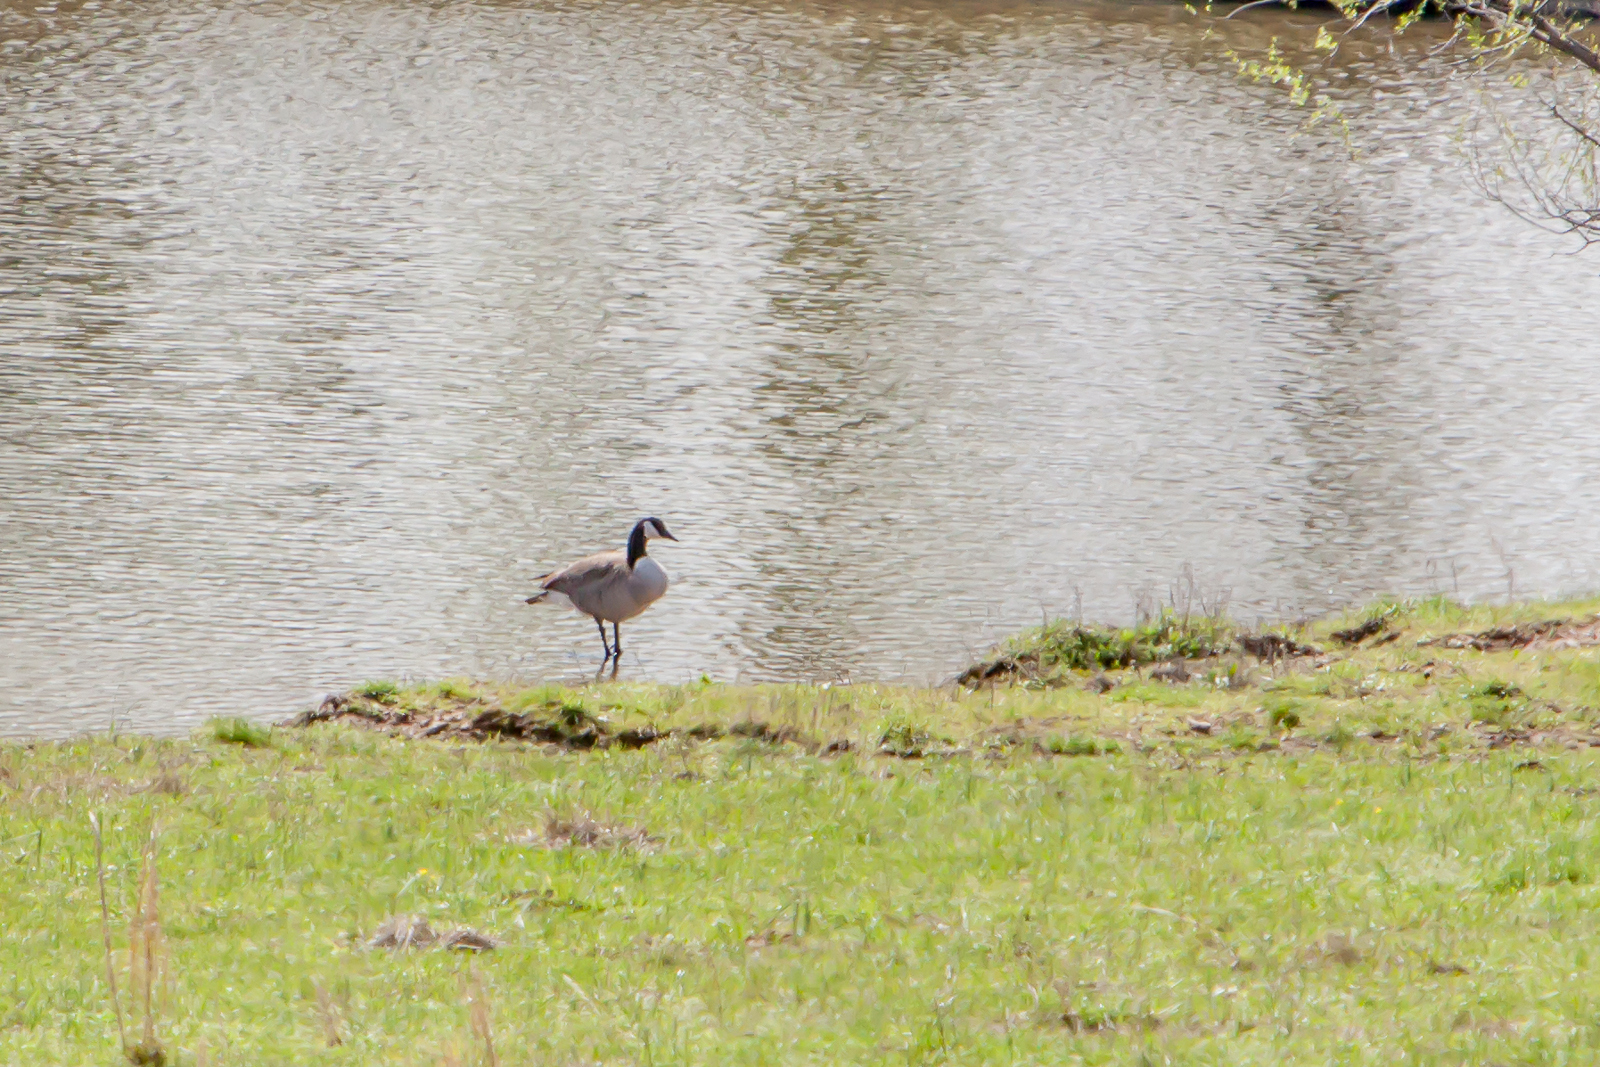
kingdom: Animalia
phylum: Chordata
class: Aves
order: Anseriformes
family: Anatidae
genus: Branta
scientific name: Branta canadensis
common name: Canada goose
